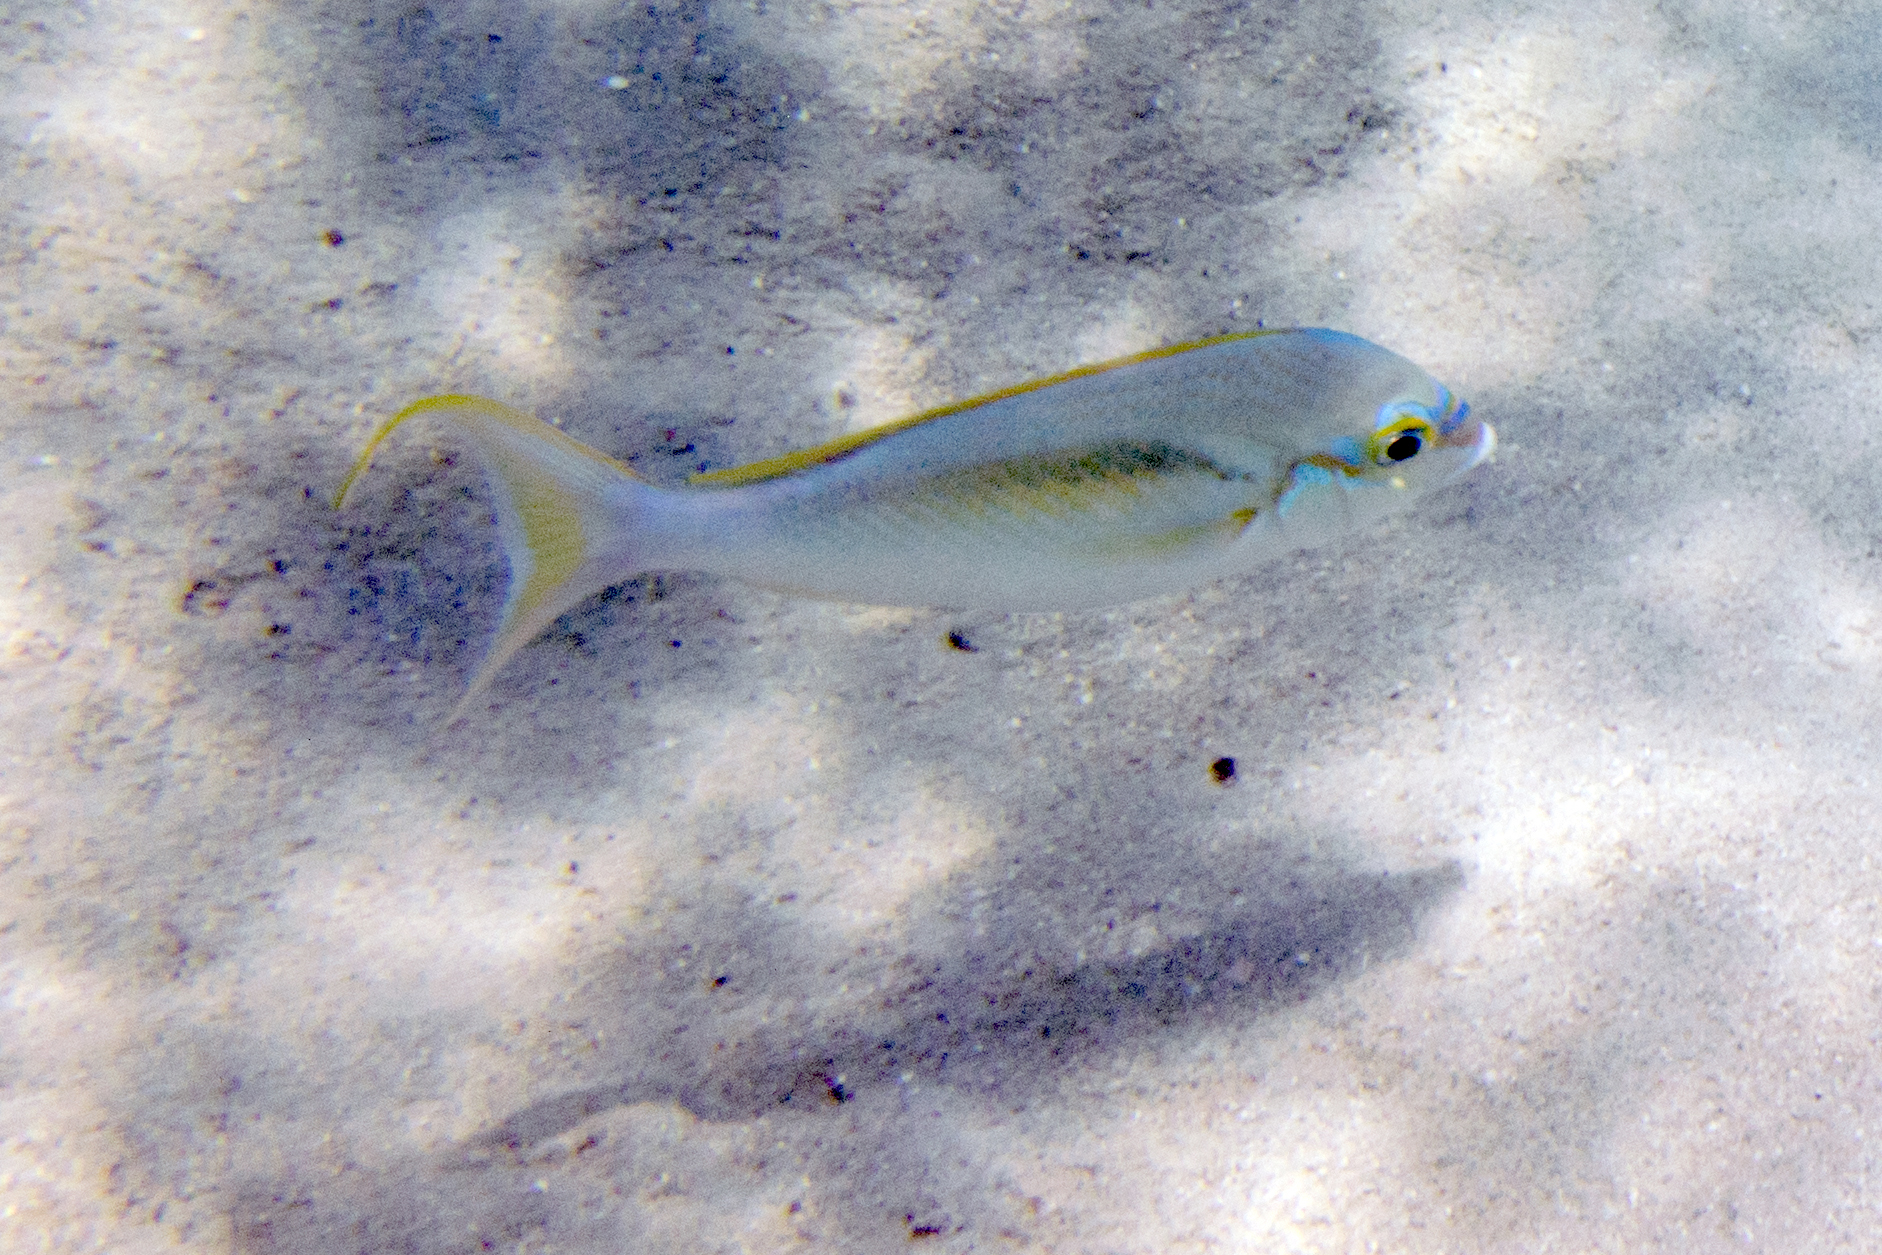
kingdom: Animalia
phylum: Chordata
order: Perciformes
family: Nemipteridae
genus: Scolopsis
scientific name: Scolopsis monogramma
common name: Monogrammed monocle bream
